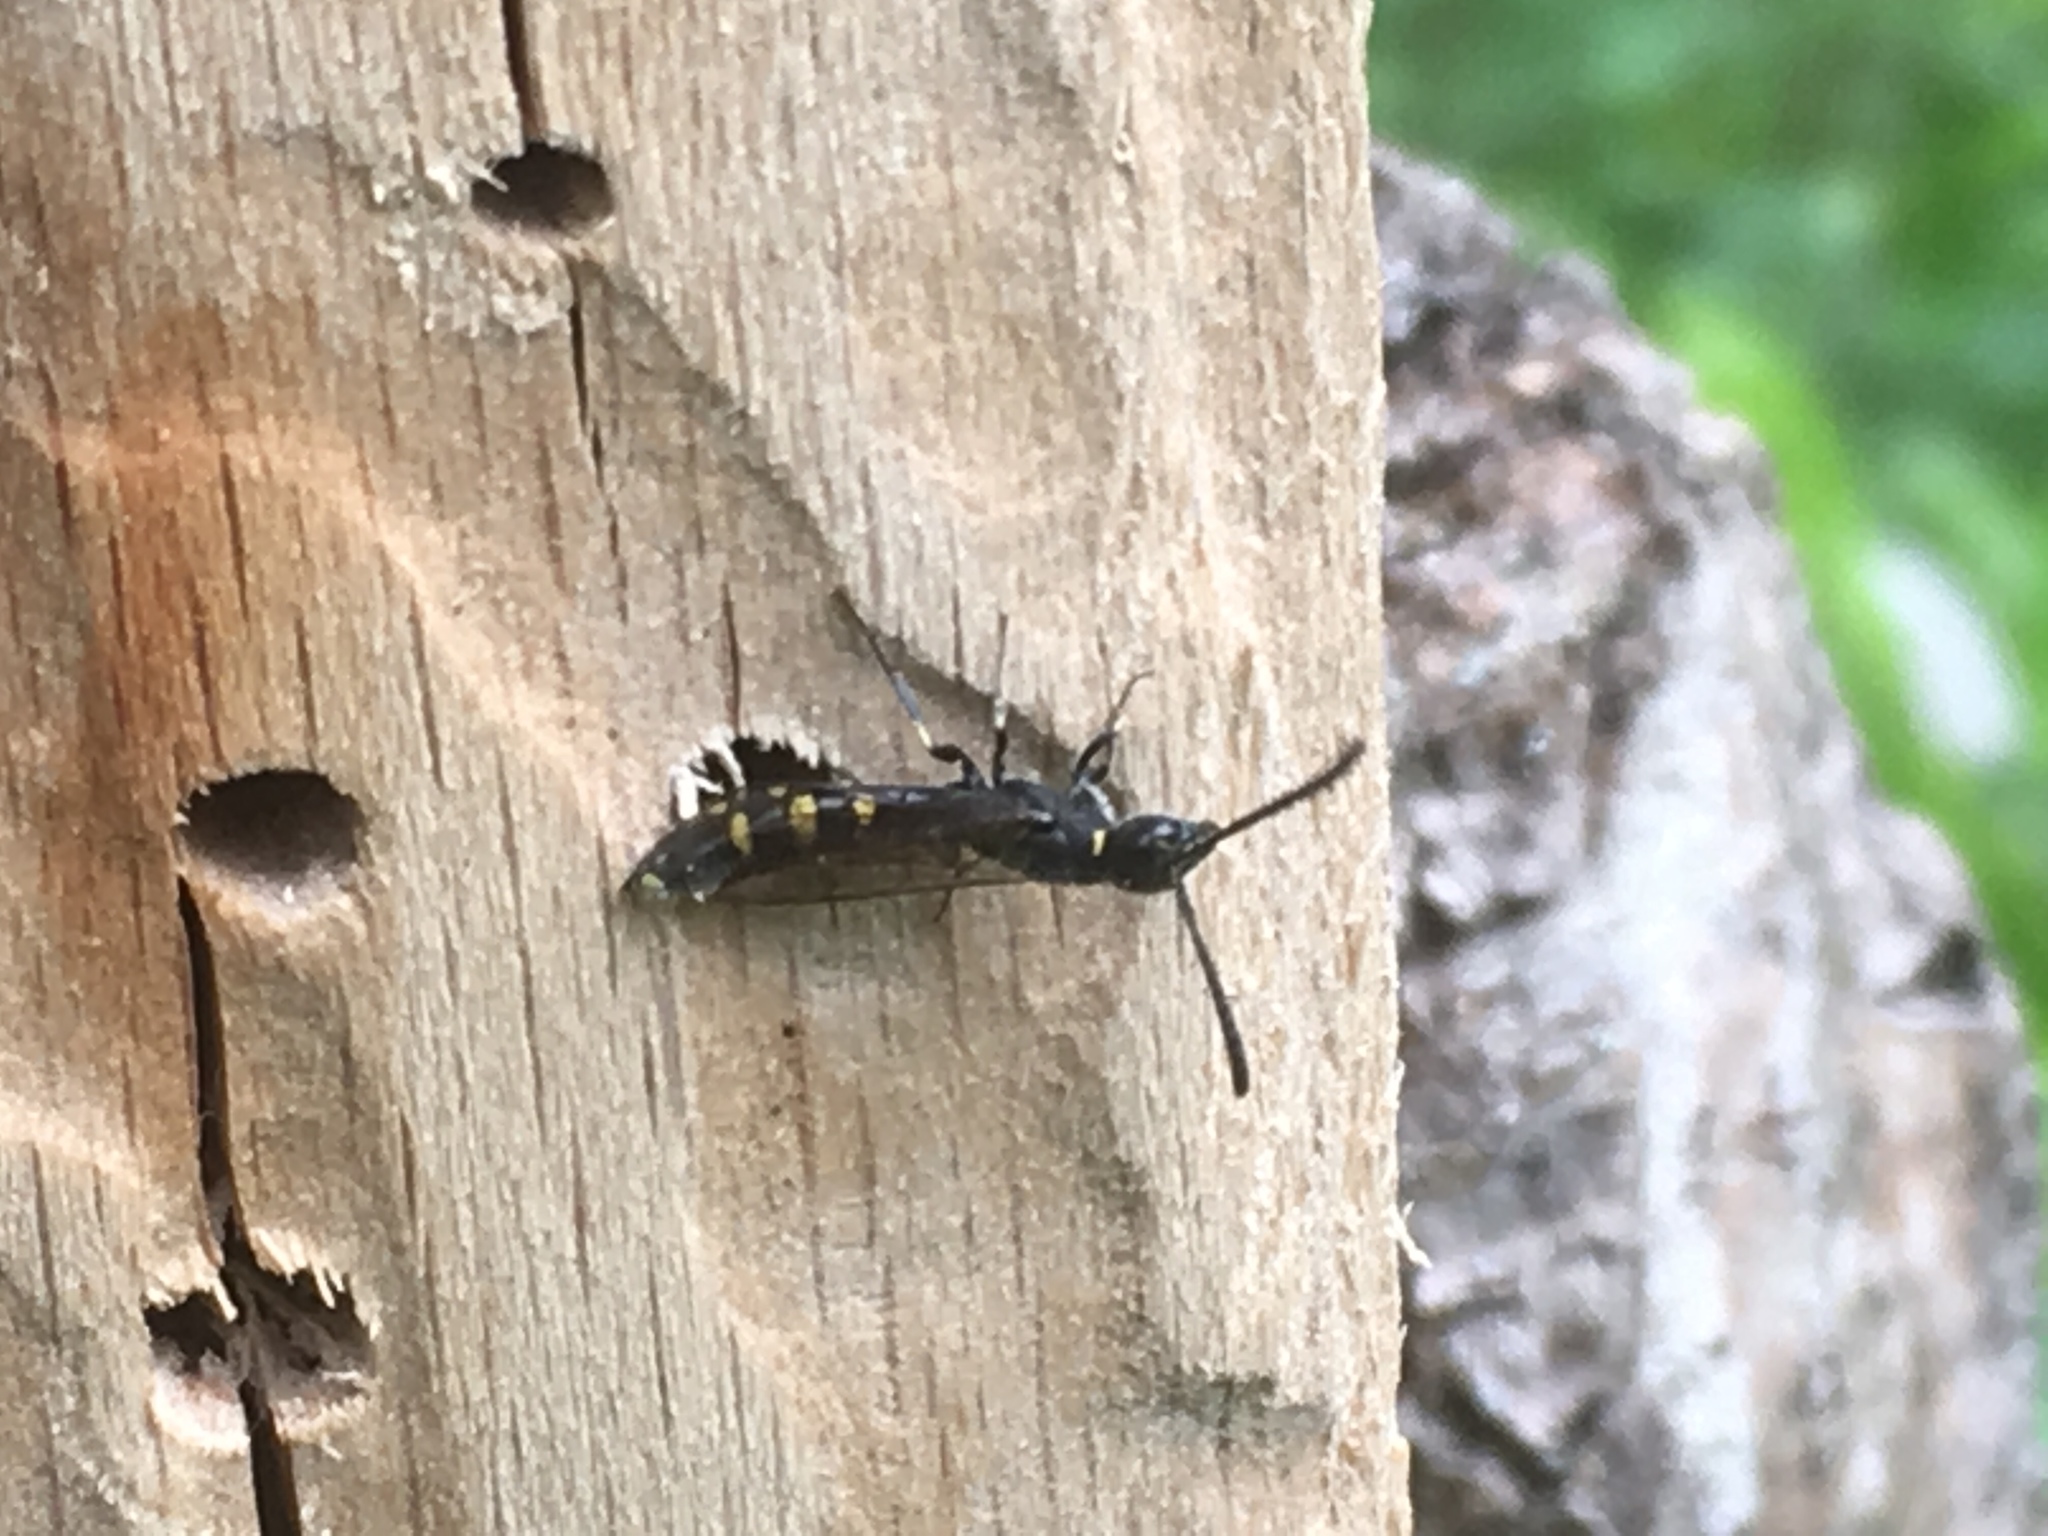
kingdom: Animalia
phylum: Arthropoda
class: Insecta
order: Hymenoptera
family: Sapygidae
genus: Monosapyga
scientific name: Monosapyga clavicornis
